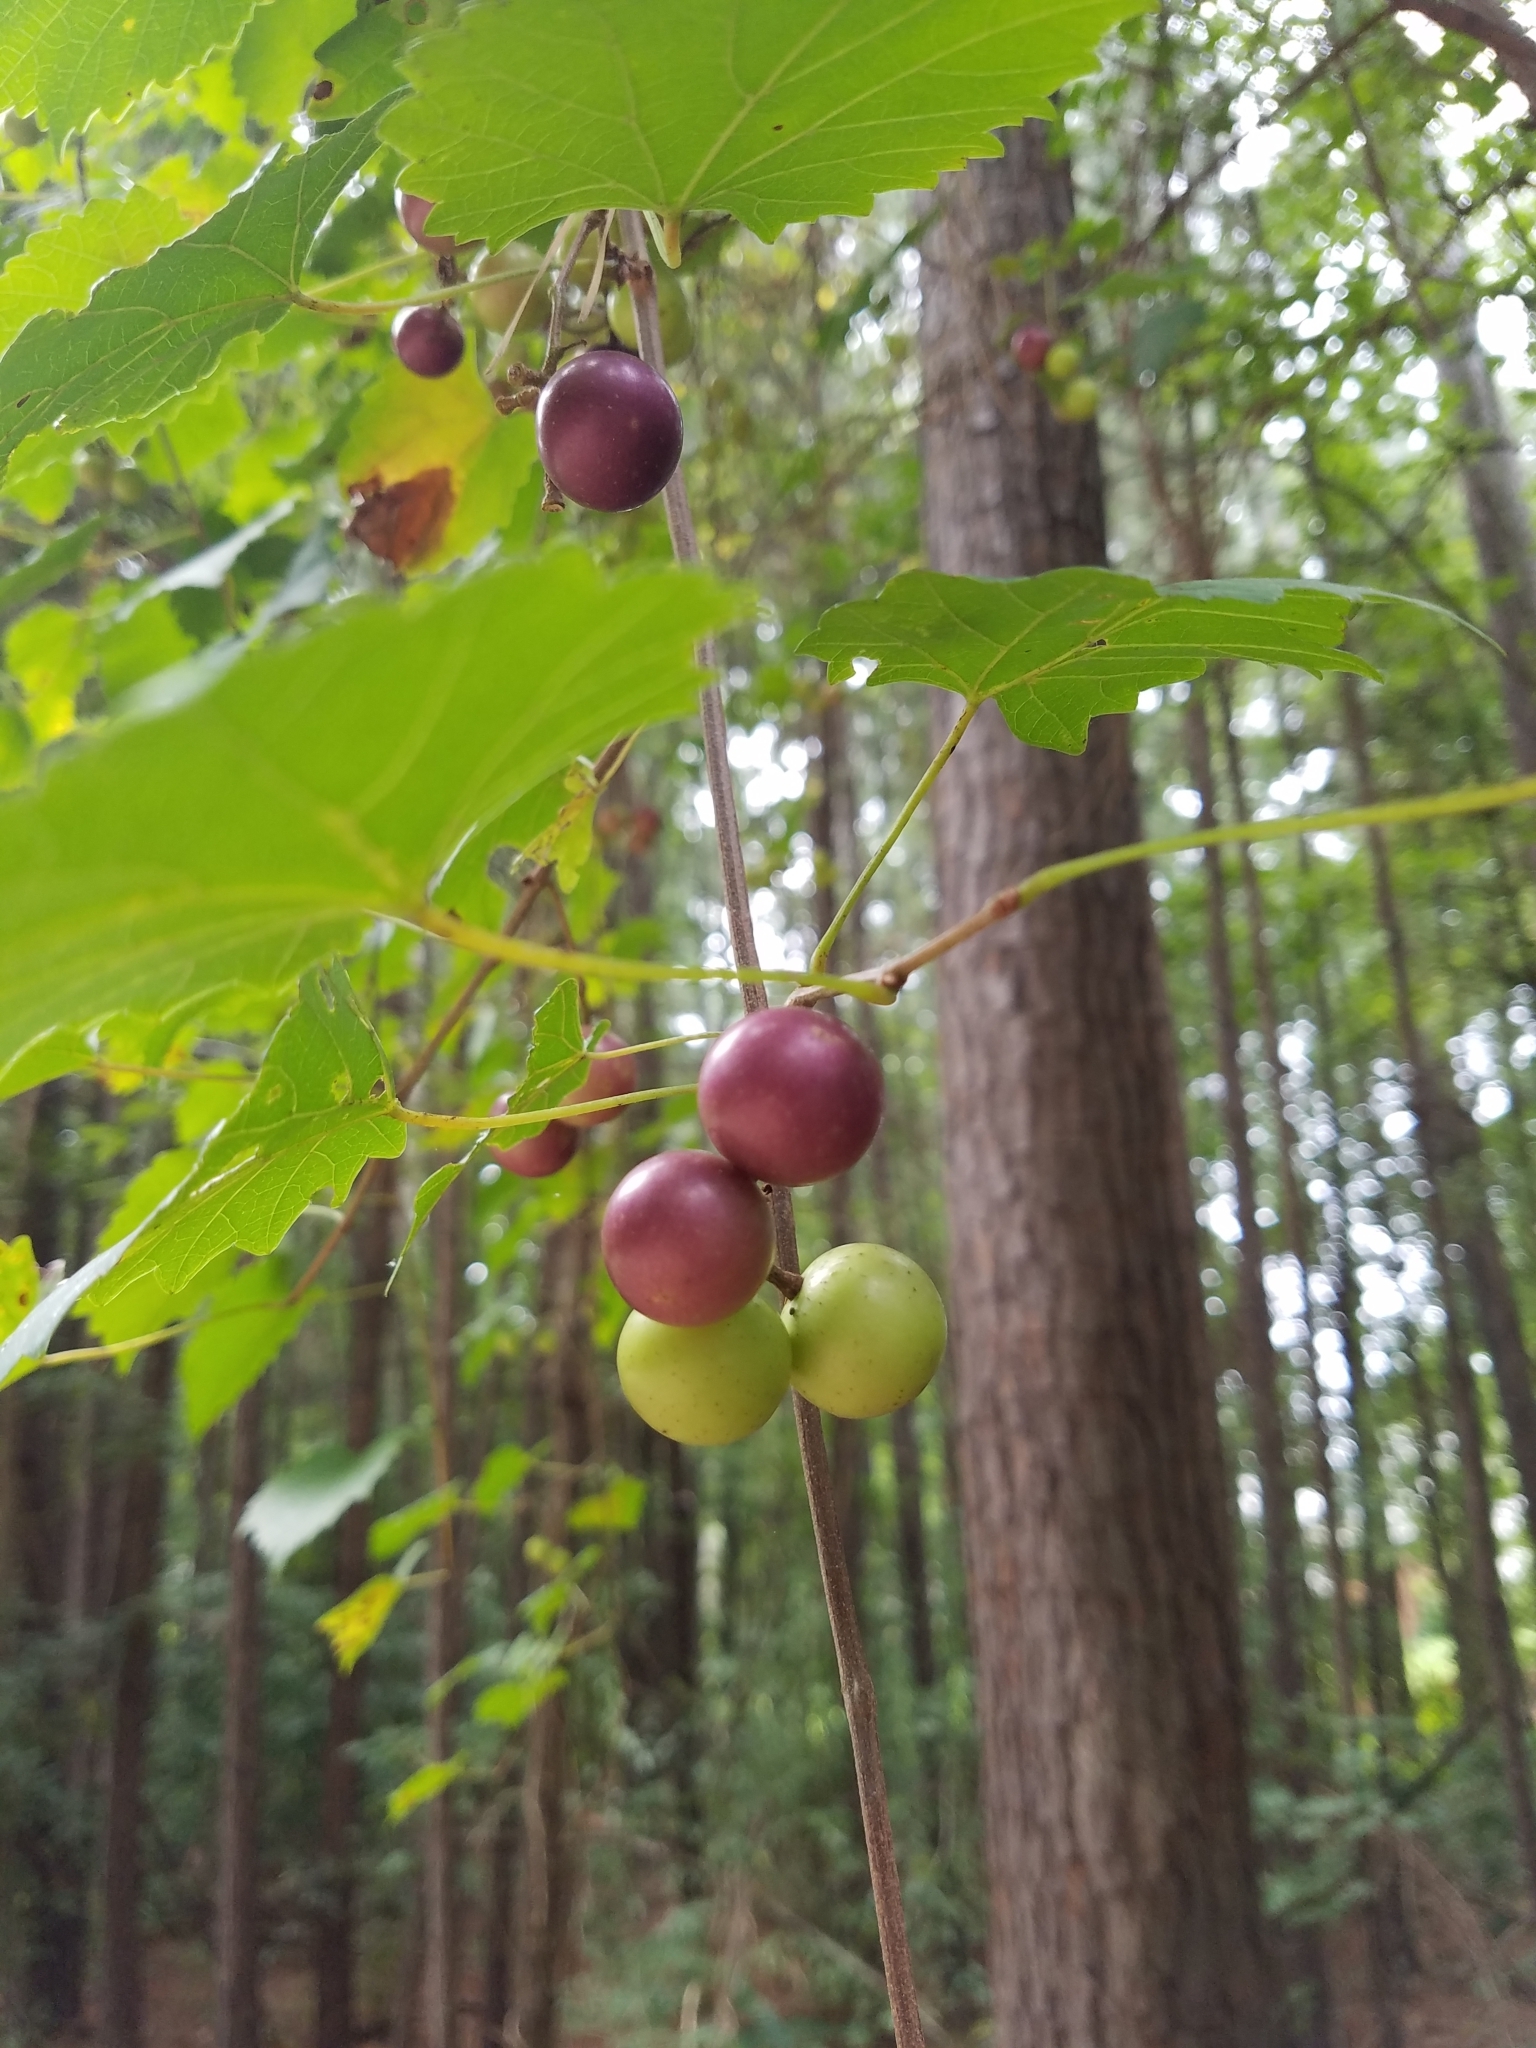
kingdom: Plantae
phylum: Tracheophyta
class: Magnoliopsida
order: Vitales
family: Vitaceae
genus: Vitis
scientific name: Vitis rotundifolia
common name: Muscadine grape
